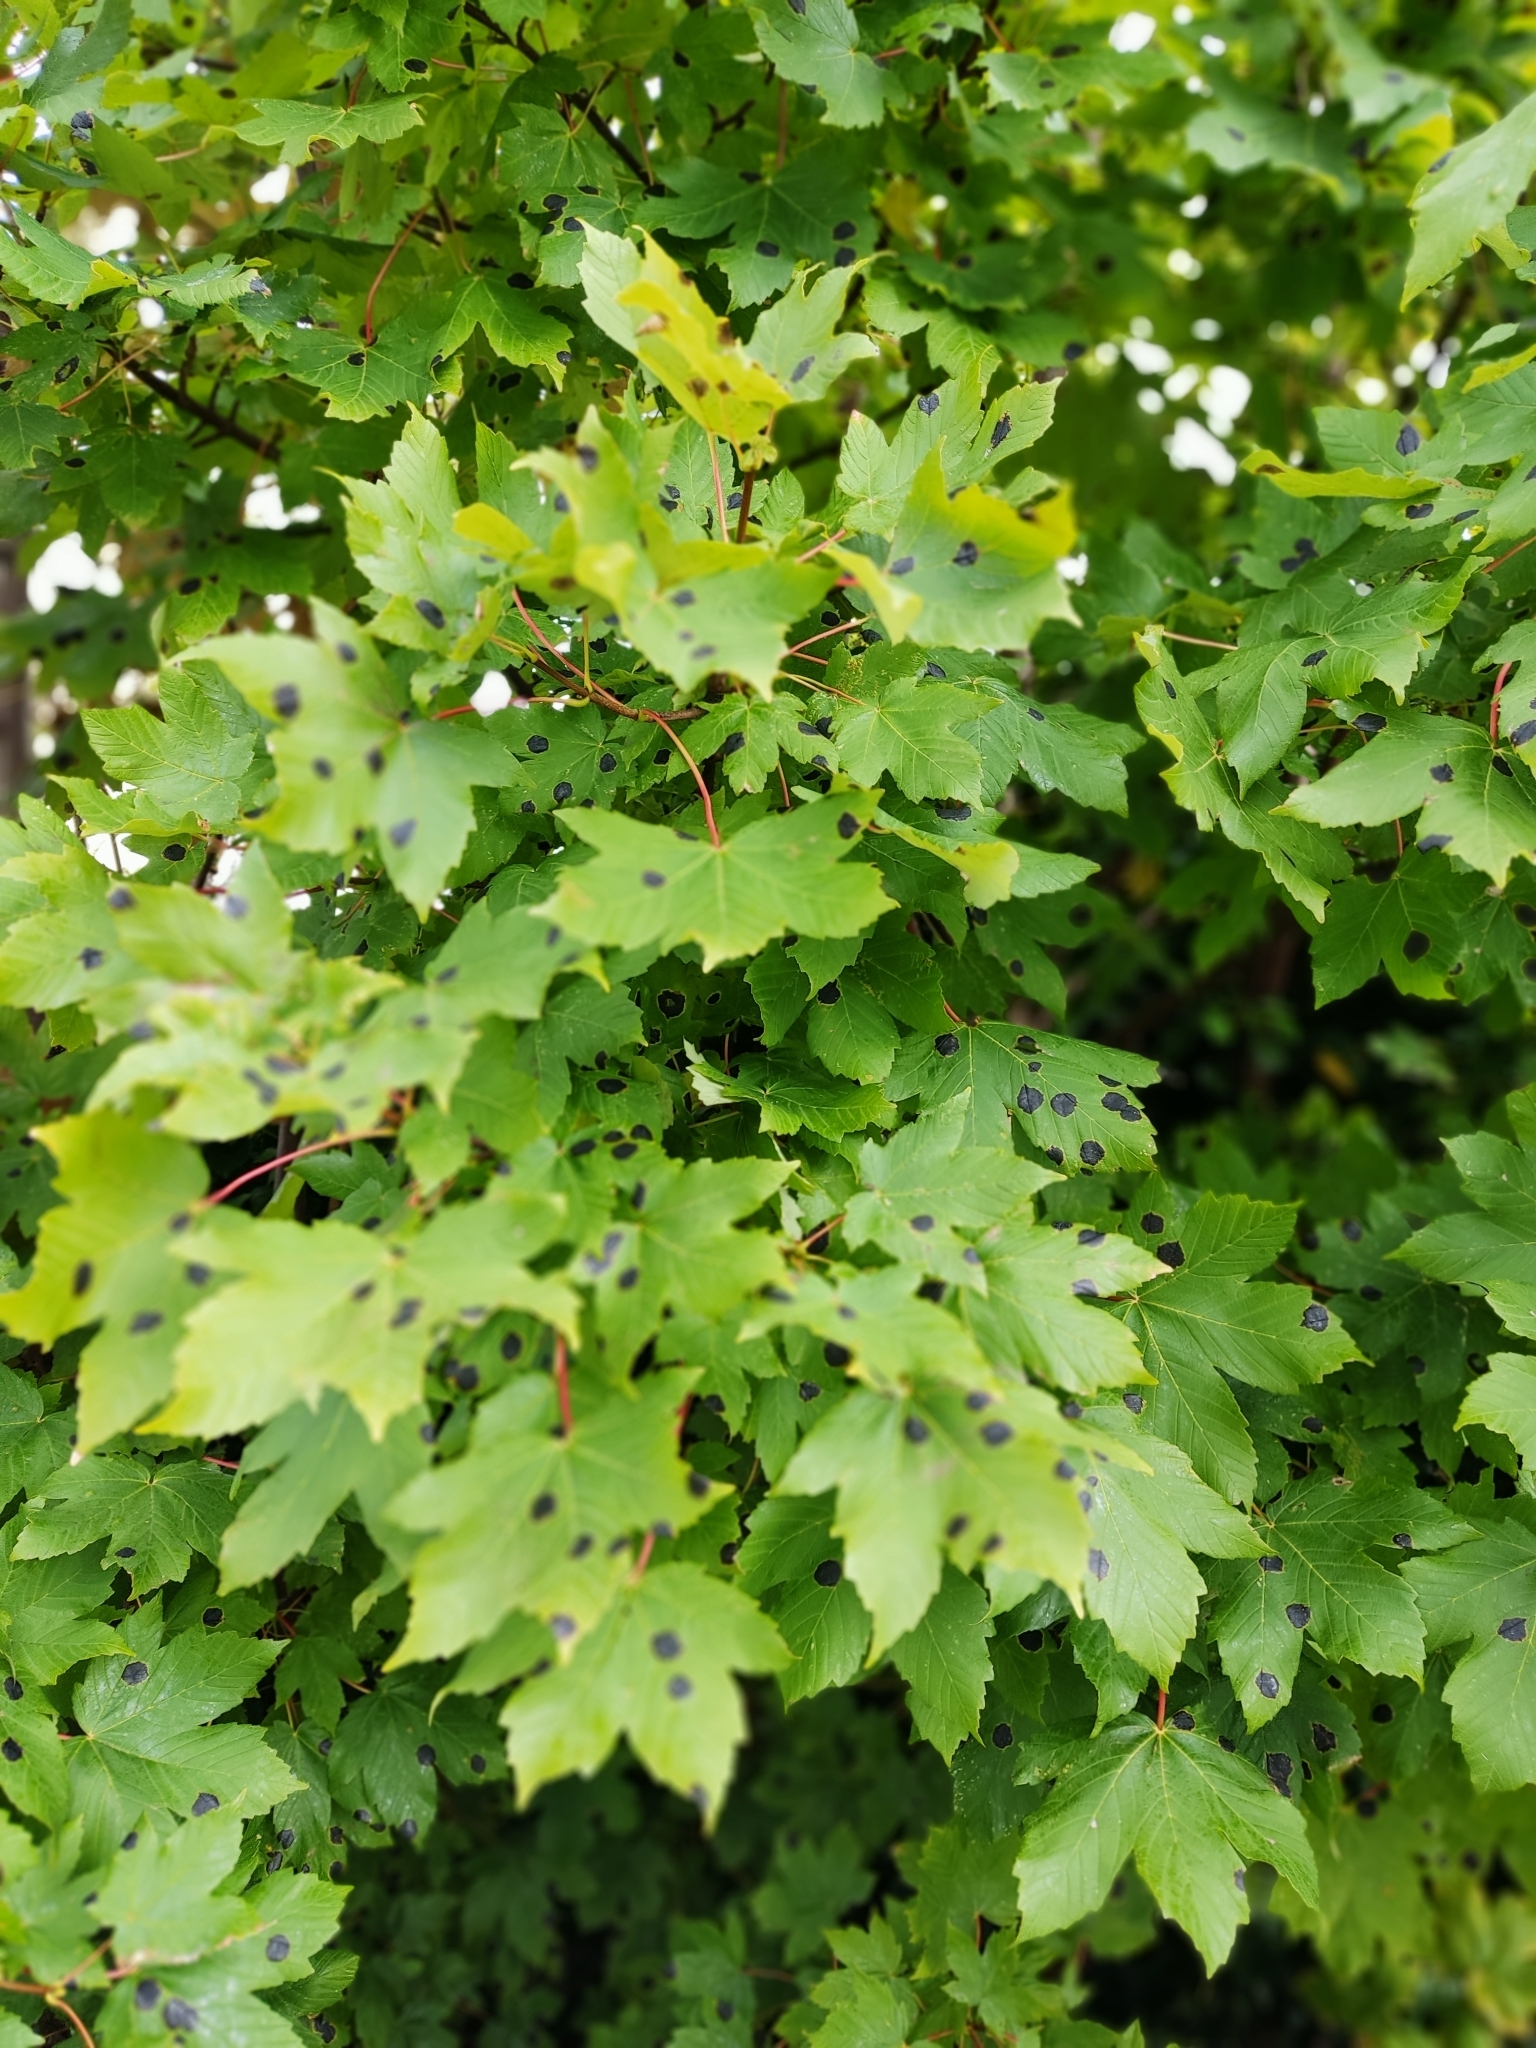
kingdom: Plantae
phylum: Tracheophyta
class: Magnoliopsida
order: Sapindales
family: Sapindaceae
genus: Acer
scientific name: Acer pseudoplatanus
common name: Sycamore
